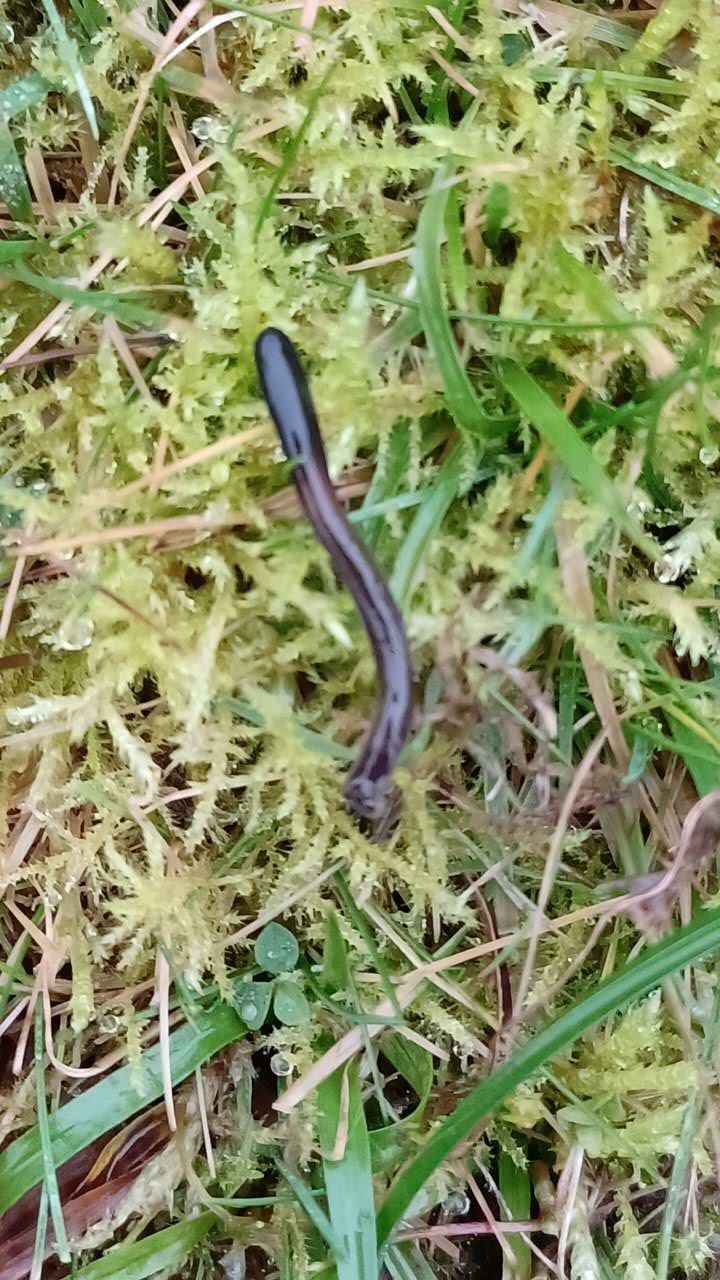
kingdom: Fungi
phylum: Ascomycota
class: Geoglossomycetes
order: Geoglossales
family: Geoglossaceae
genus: Glutinoglossum
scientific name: Glutinoglossum heptaseptatum
